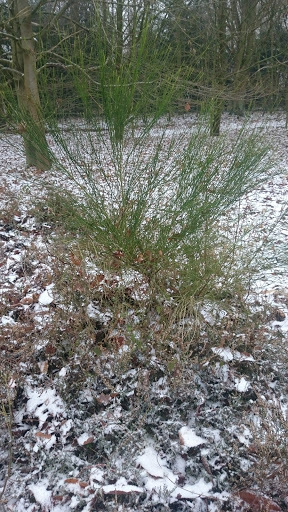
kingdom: Plantae
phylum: Tracheophyta
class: Magnoliopsida
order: Fabales
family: Fabaceae
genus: Cytisus
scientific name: Cytisus scoparius
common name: Scotch broom
